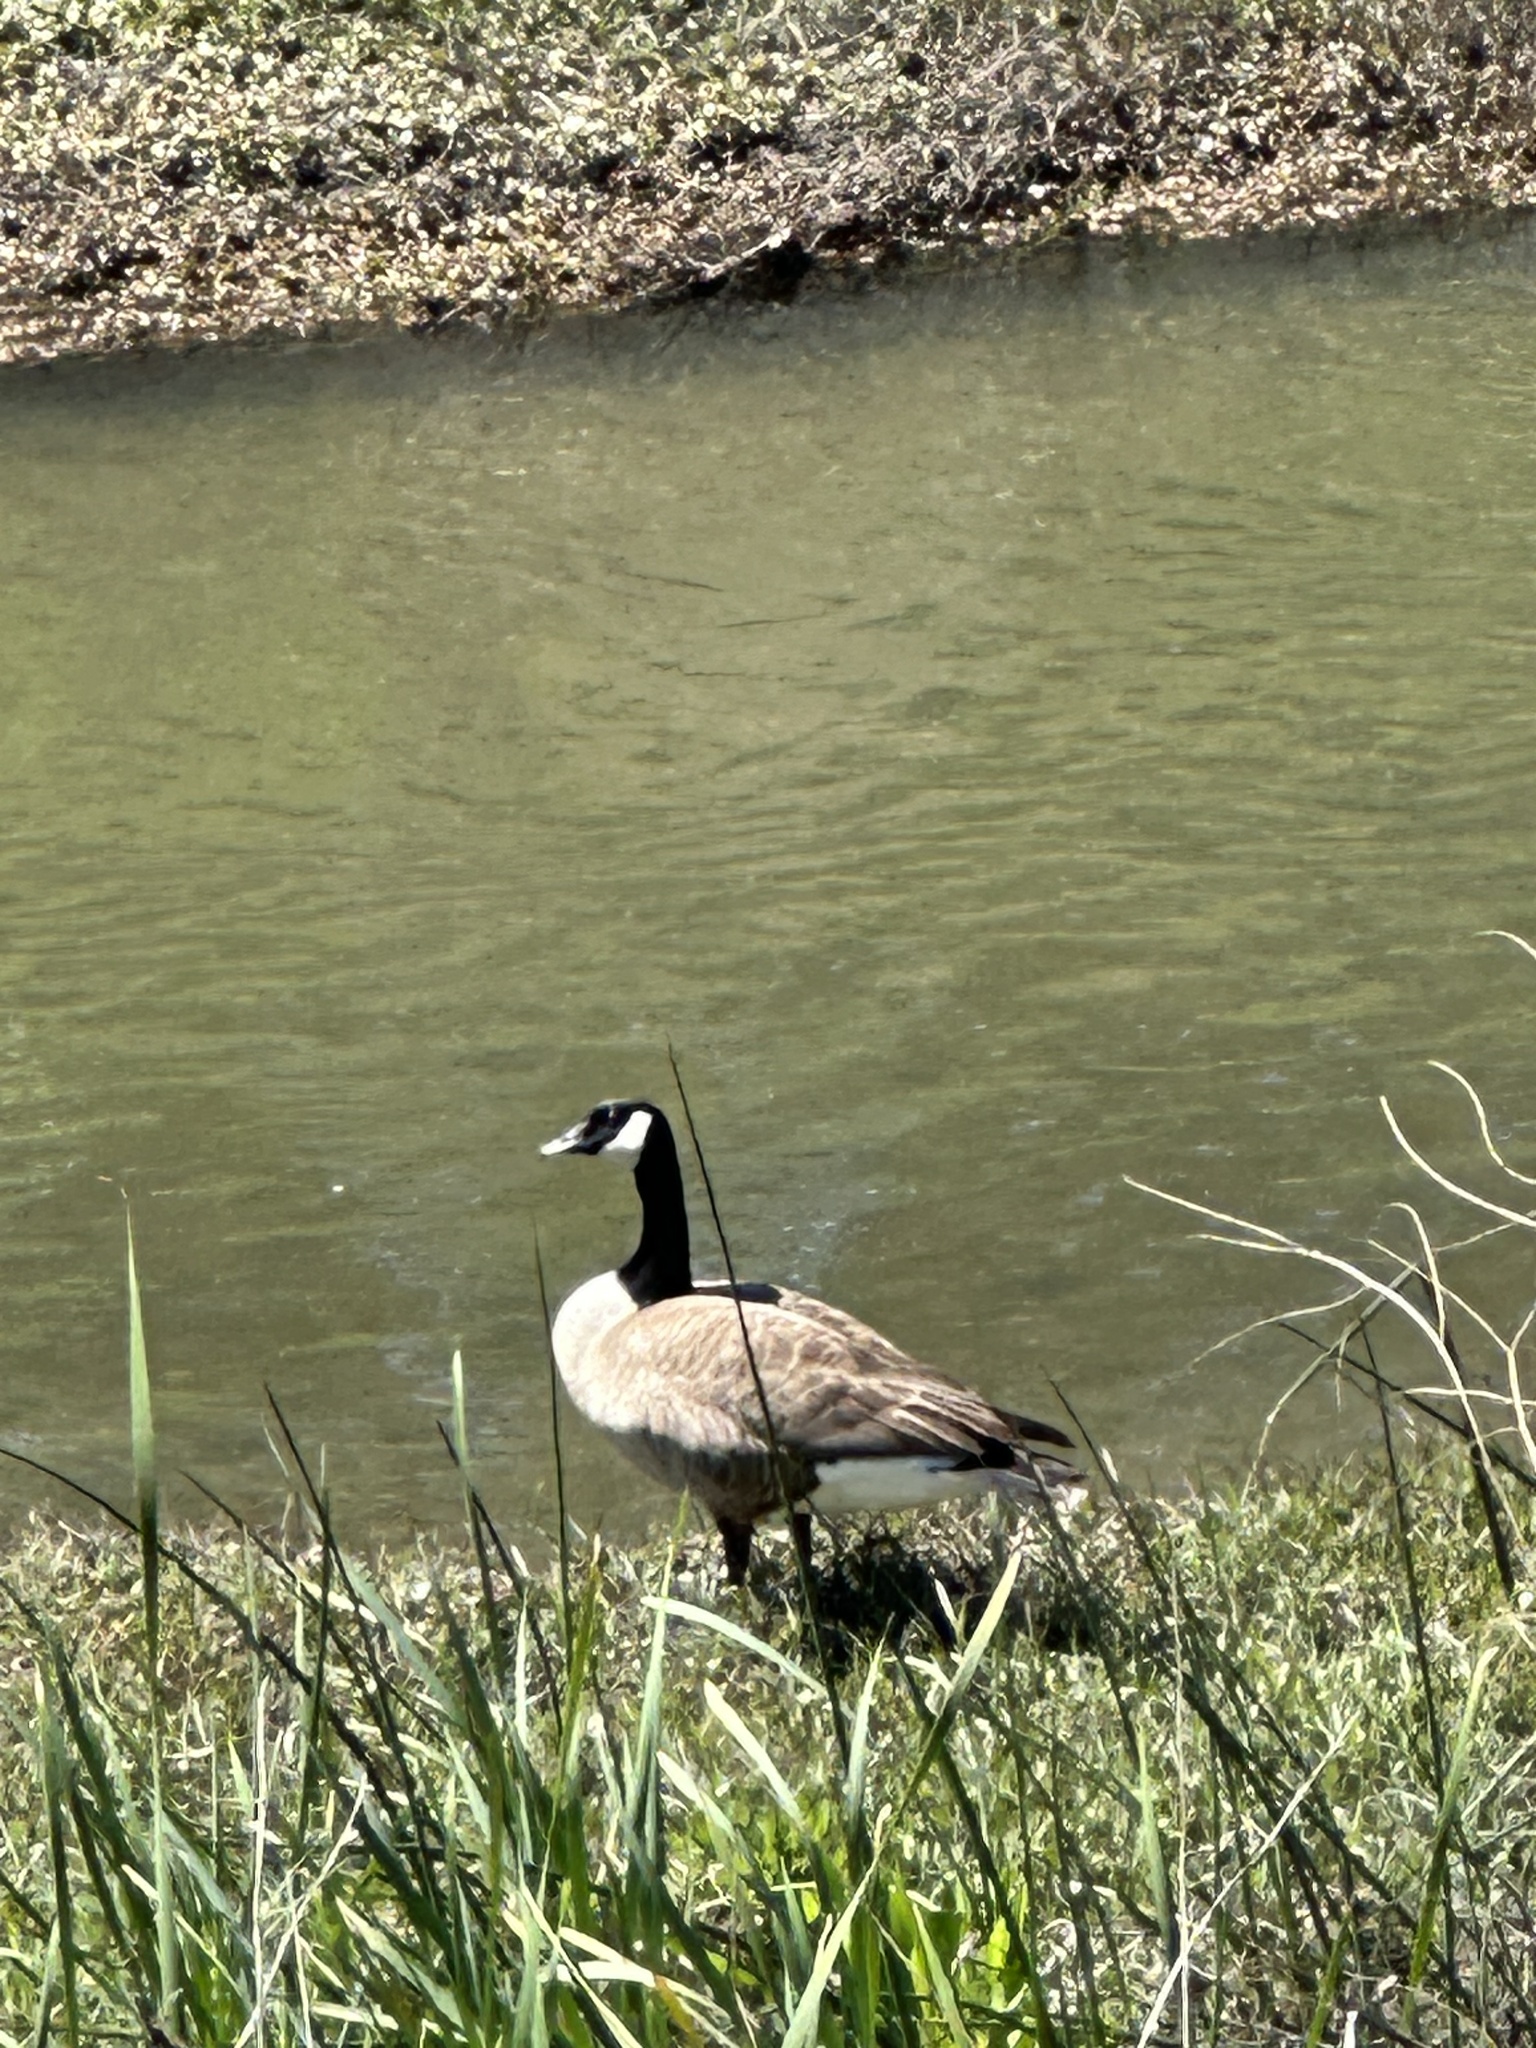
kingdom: Animalia
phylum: Chordata
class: Aves
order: Anseriformes
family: Anatidae
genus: Branta
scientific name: Branta canadensis
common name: Canada goose
